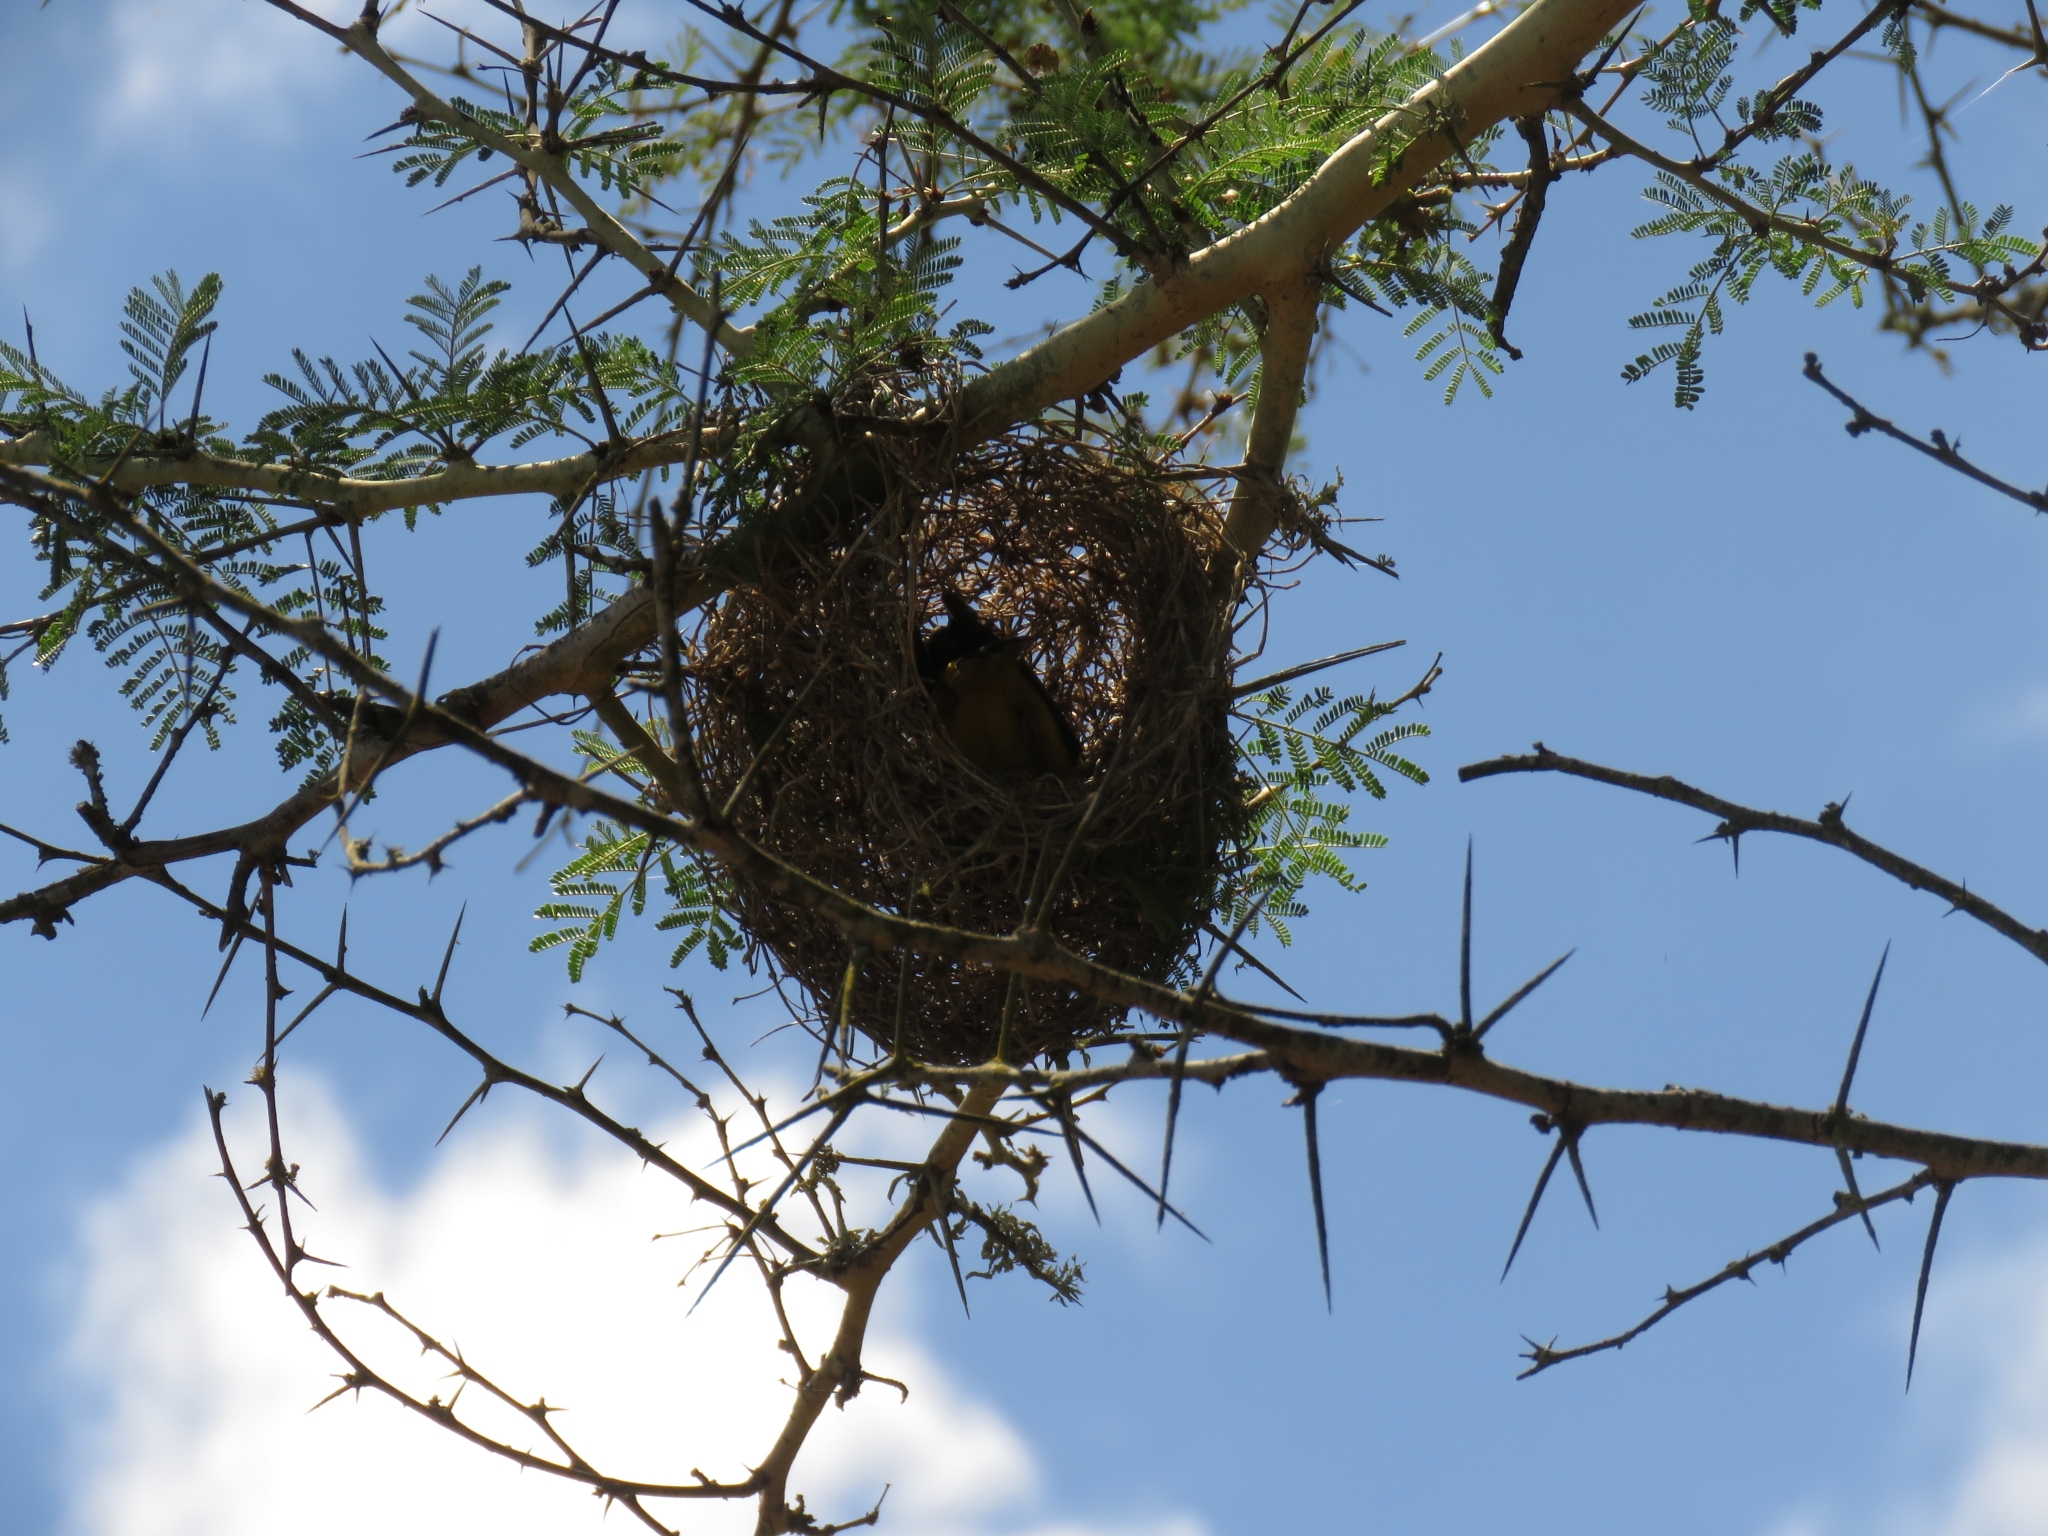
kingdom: Animalia
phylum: Chordata
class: Aves
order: Passeriformes
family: Ploceidae
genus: Ploceus
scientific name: Ploceus bicolor
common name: Dark-backed weaver
